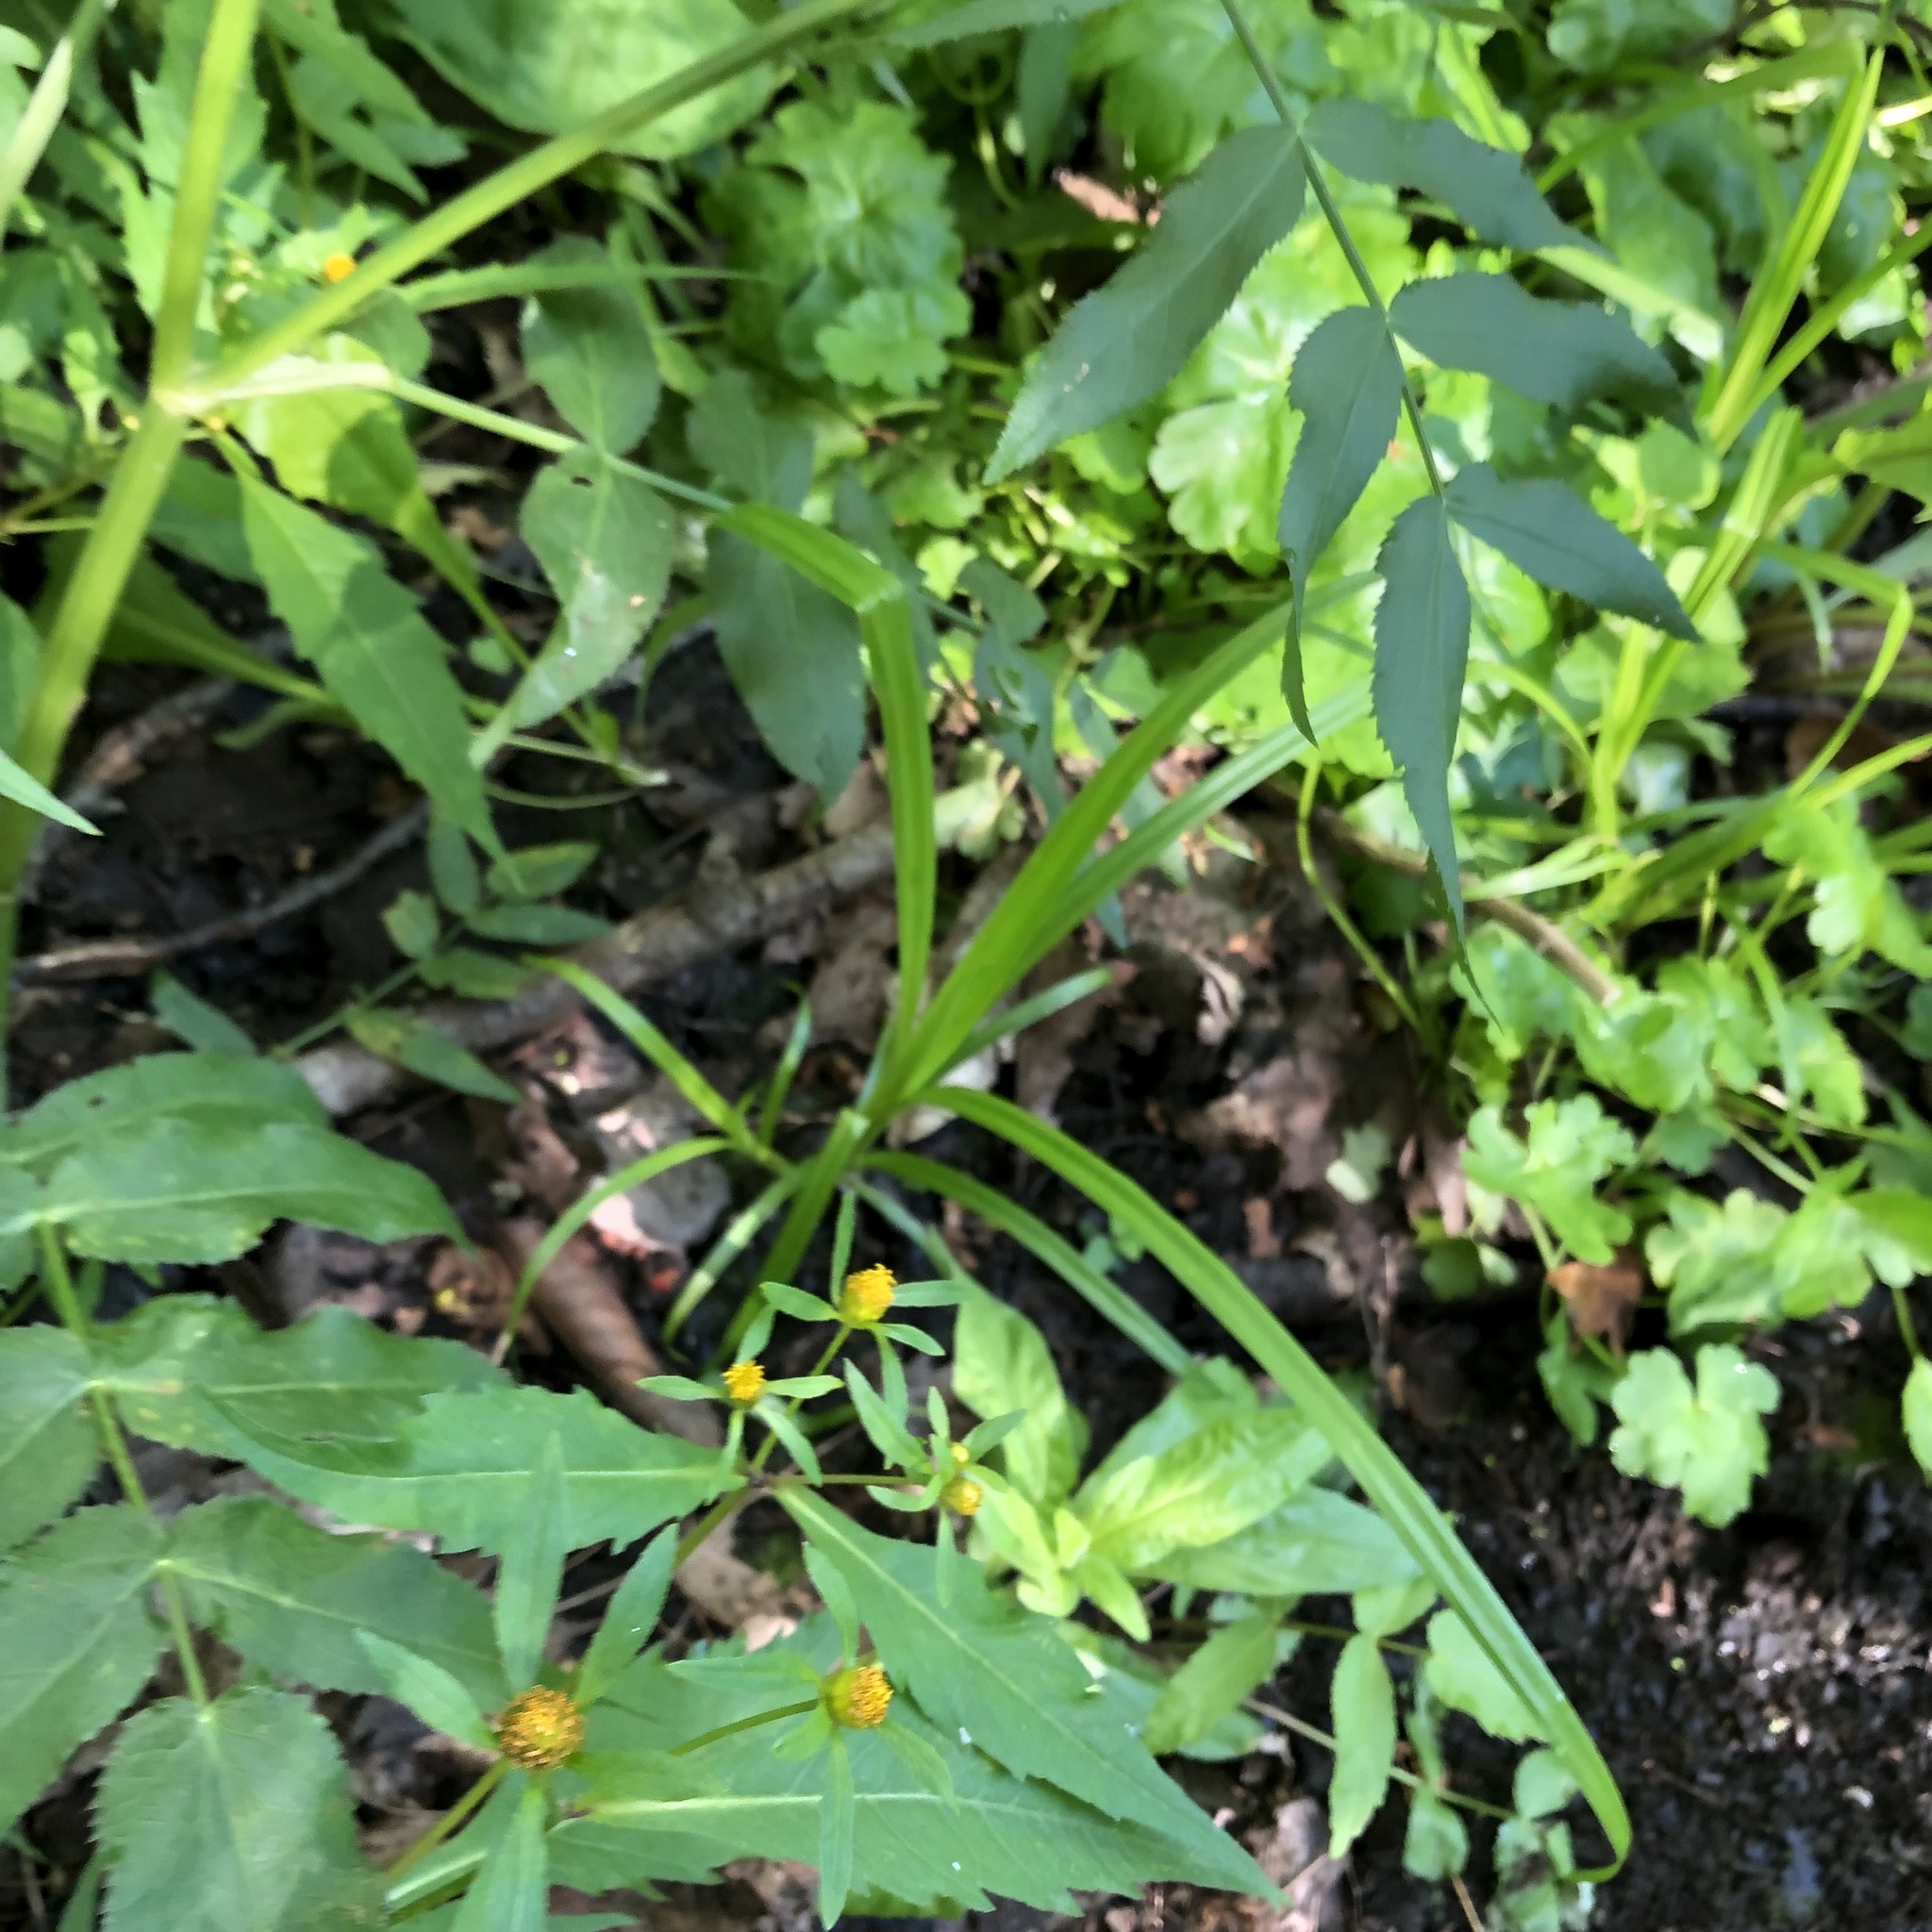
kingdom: Plantae
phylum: Tracheophyta
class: Magnoliopsida
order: Asterales
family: Asteraceae
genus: Bidens
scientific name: Bidens connata
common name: London bur-marigold
